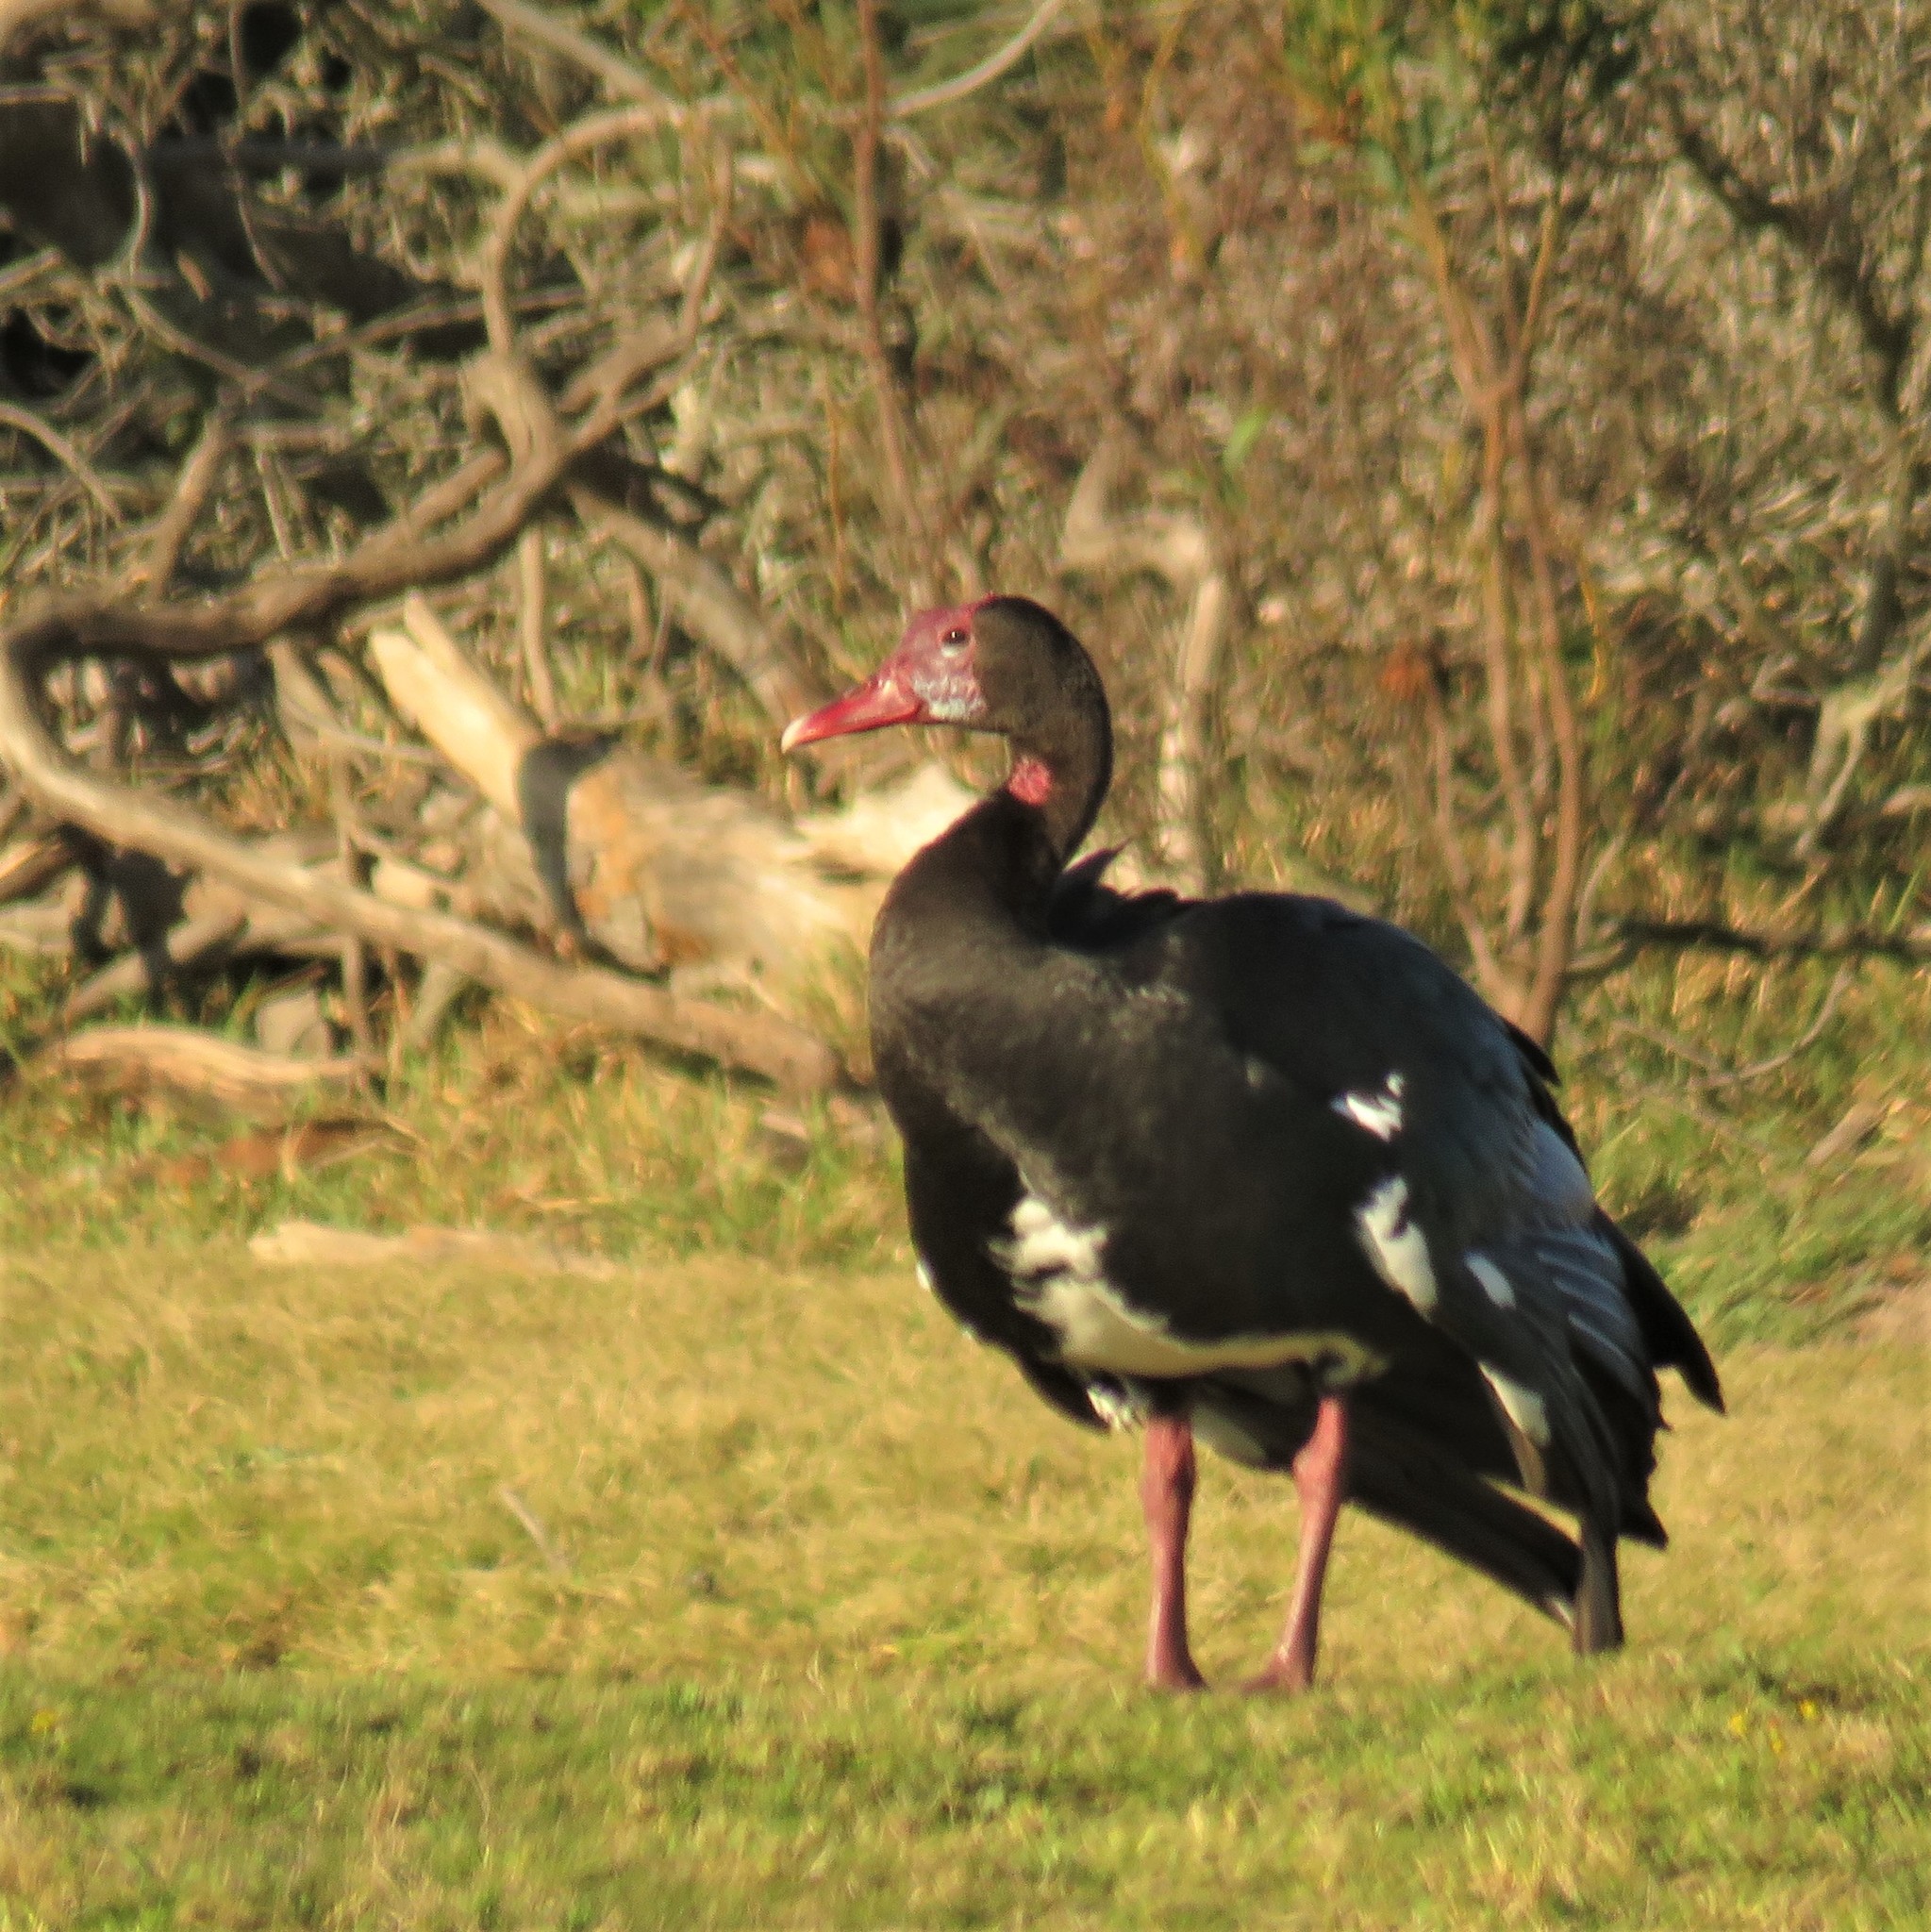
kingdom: Animalia
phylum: Chordata
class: Aves
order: Anseriformes
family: Anatidae
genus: Plectropterus
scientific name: Plectropterus gambensis
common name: Spur-winged goose
